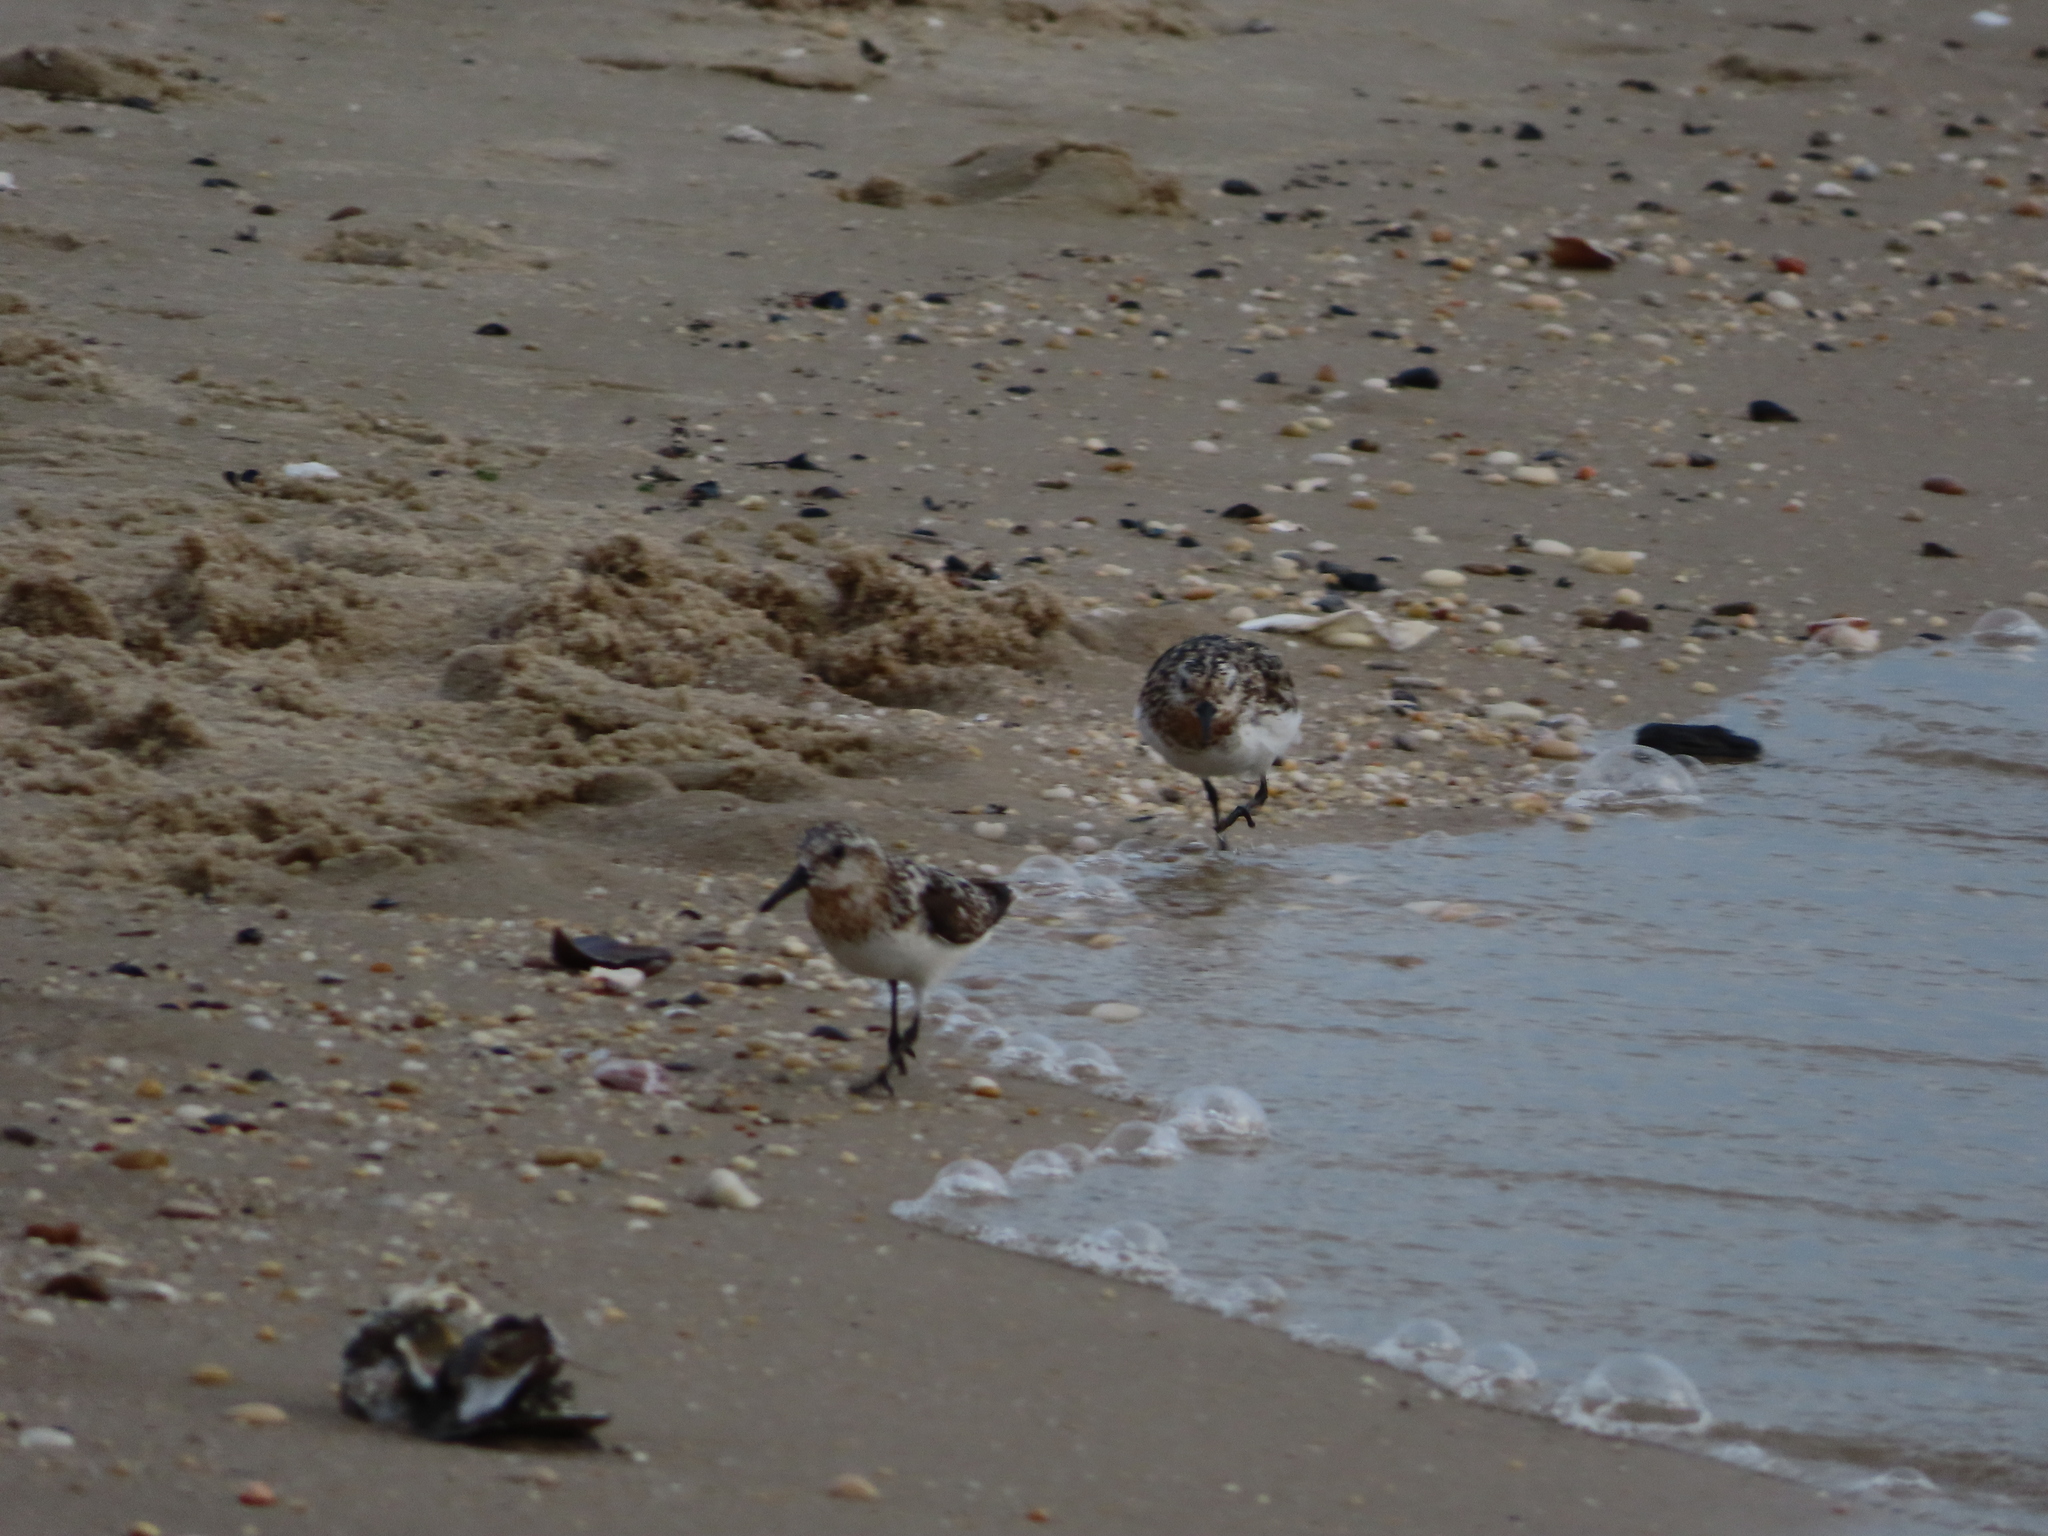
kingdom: Animalia
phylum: Chordata
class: Aves
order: Charadriiformes
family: Scolopacidae
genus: Calidris
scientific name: Calidris alba
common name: Sanderling
